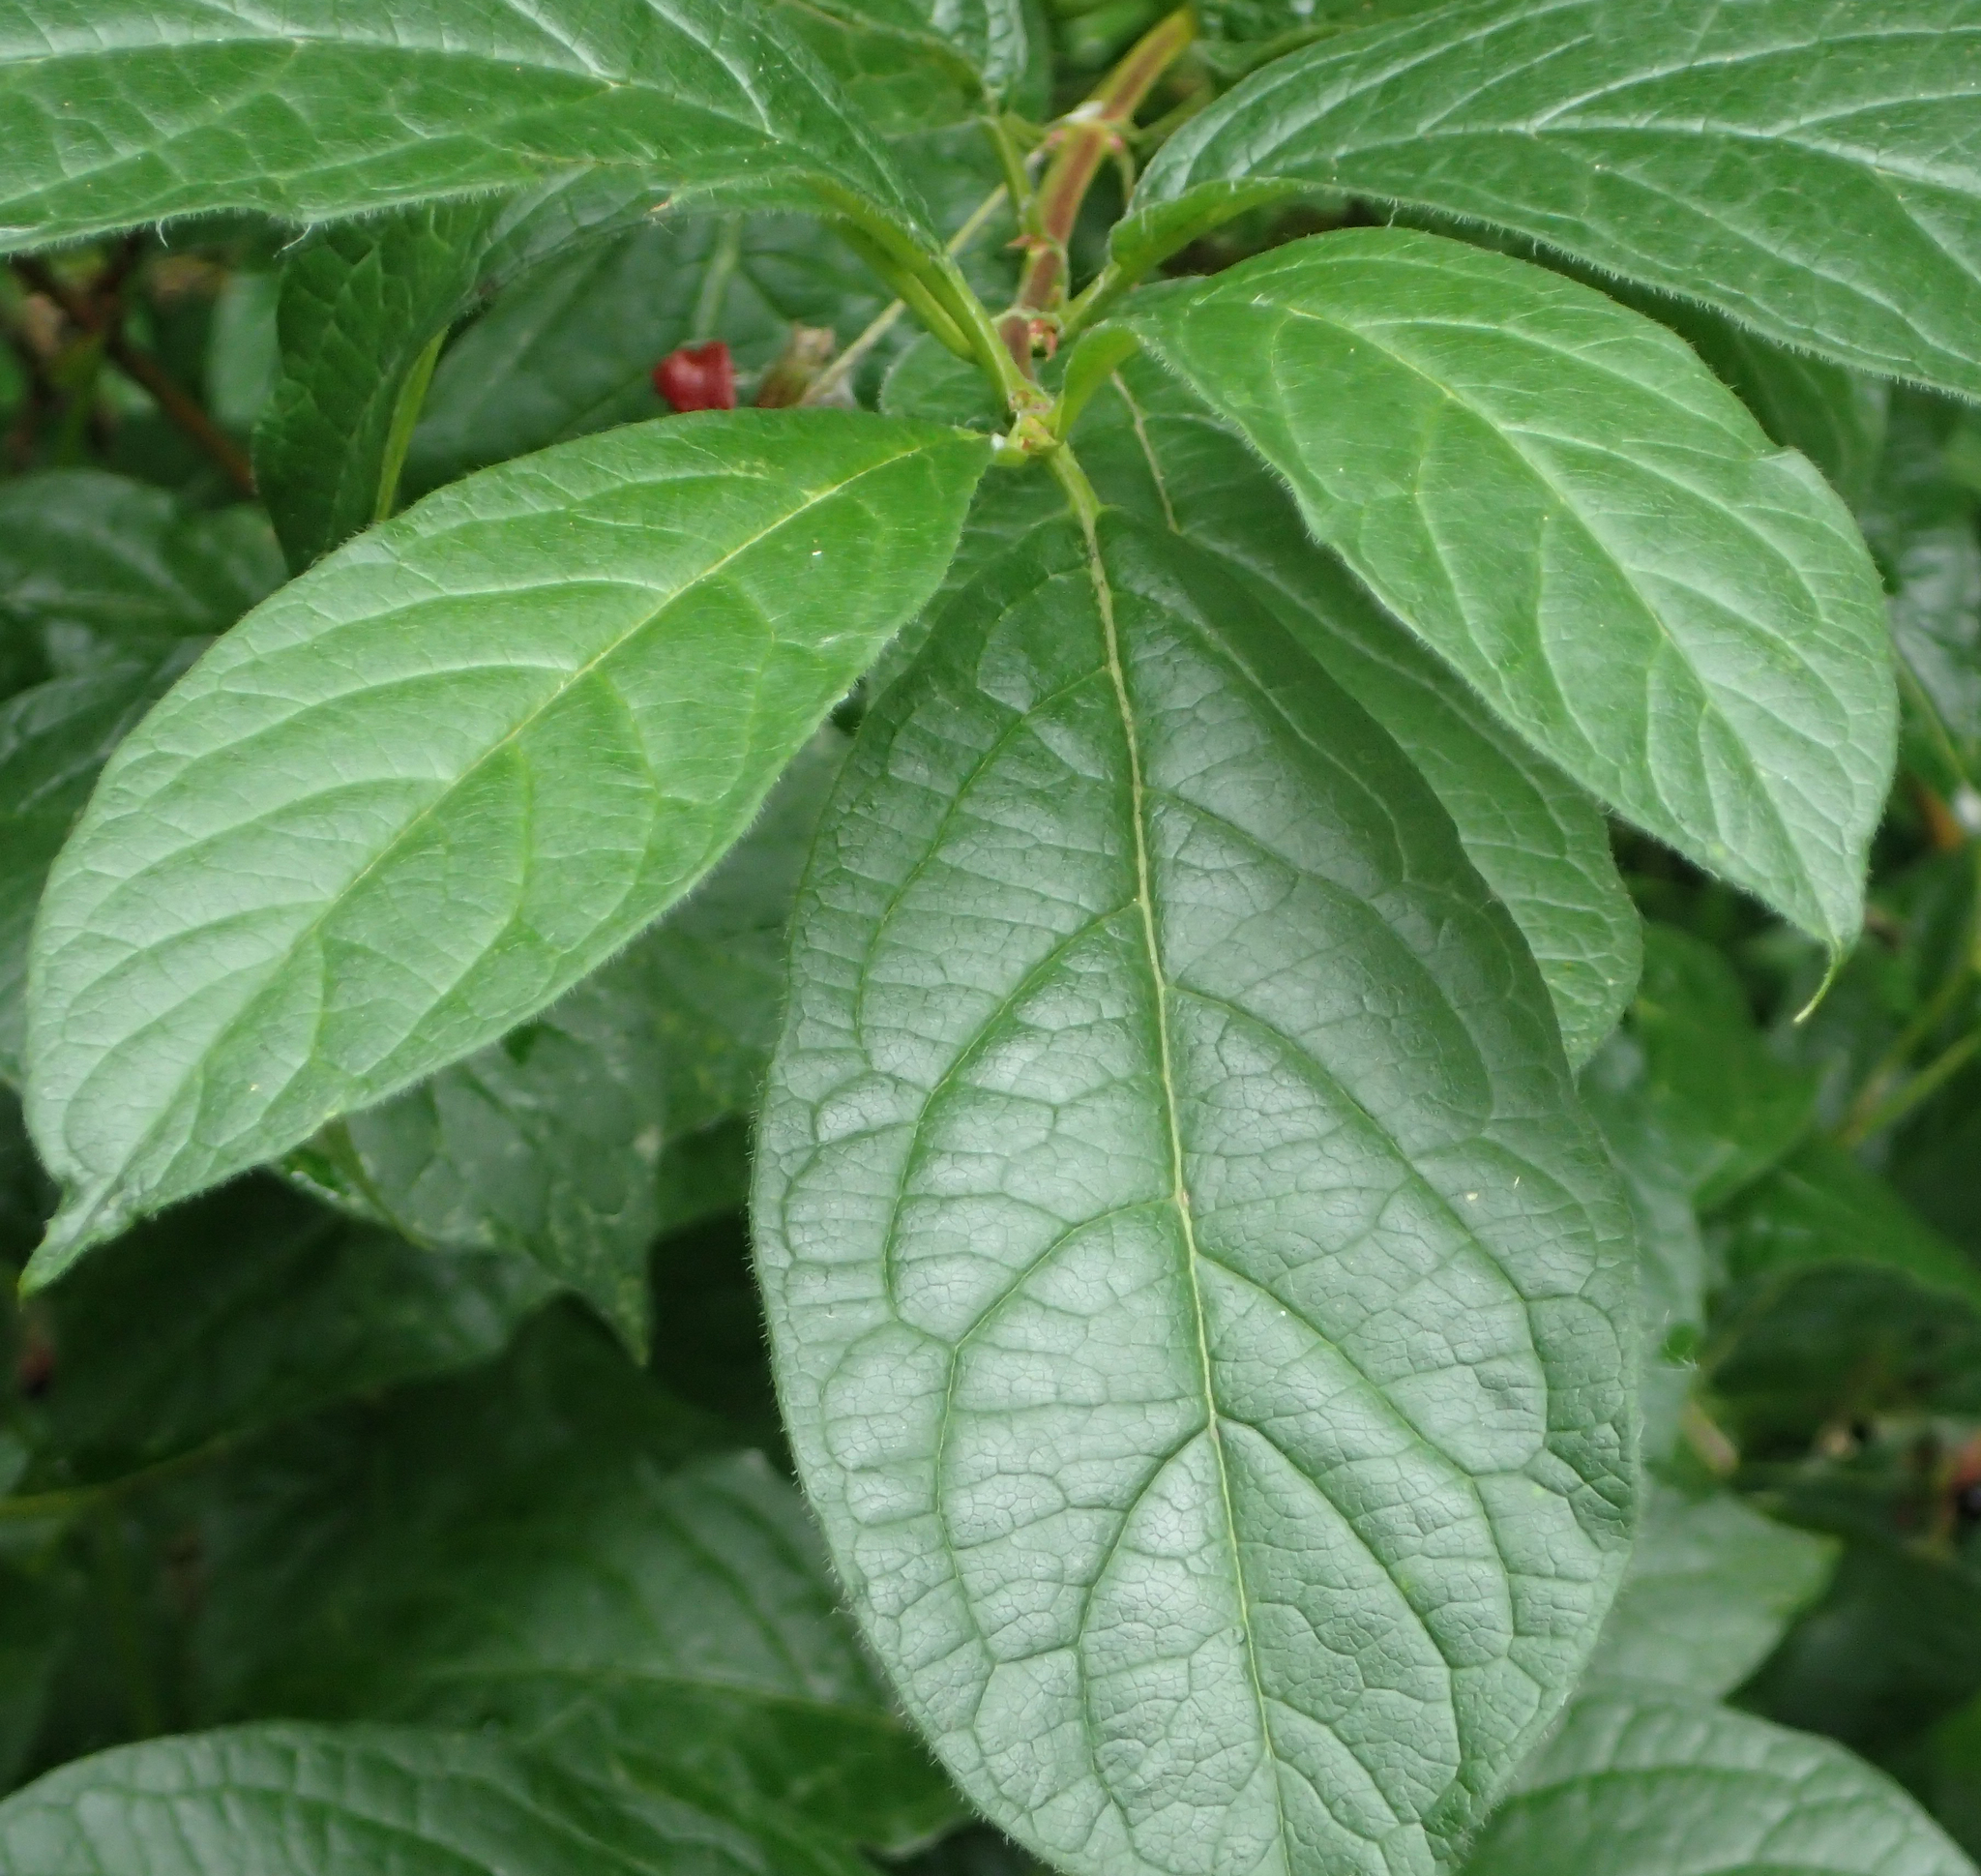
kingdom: Plantae
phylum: Tracheophyta
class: Magnoliopsida
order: Dipsacales
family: Caprifoliaceae
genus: Lonicera
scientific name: Lonicera involucrata
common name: Californian honeysuckle
